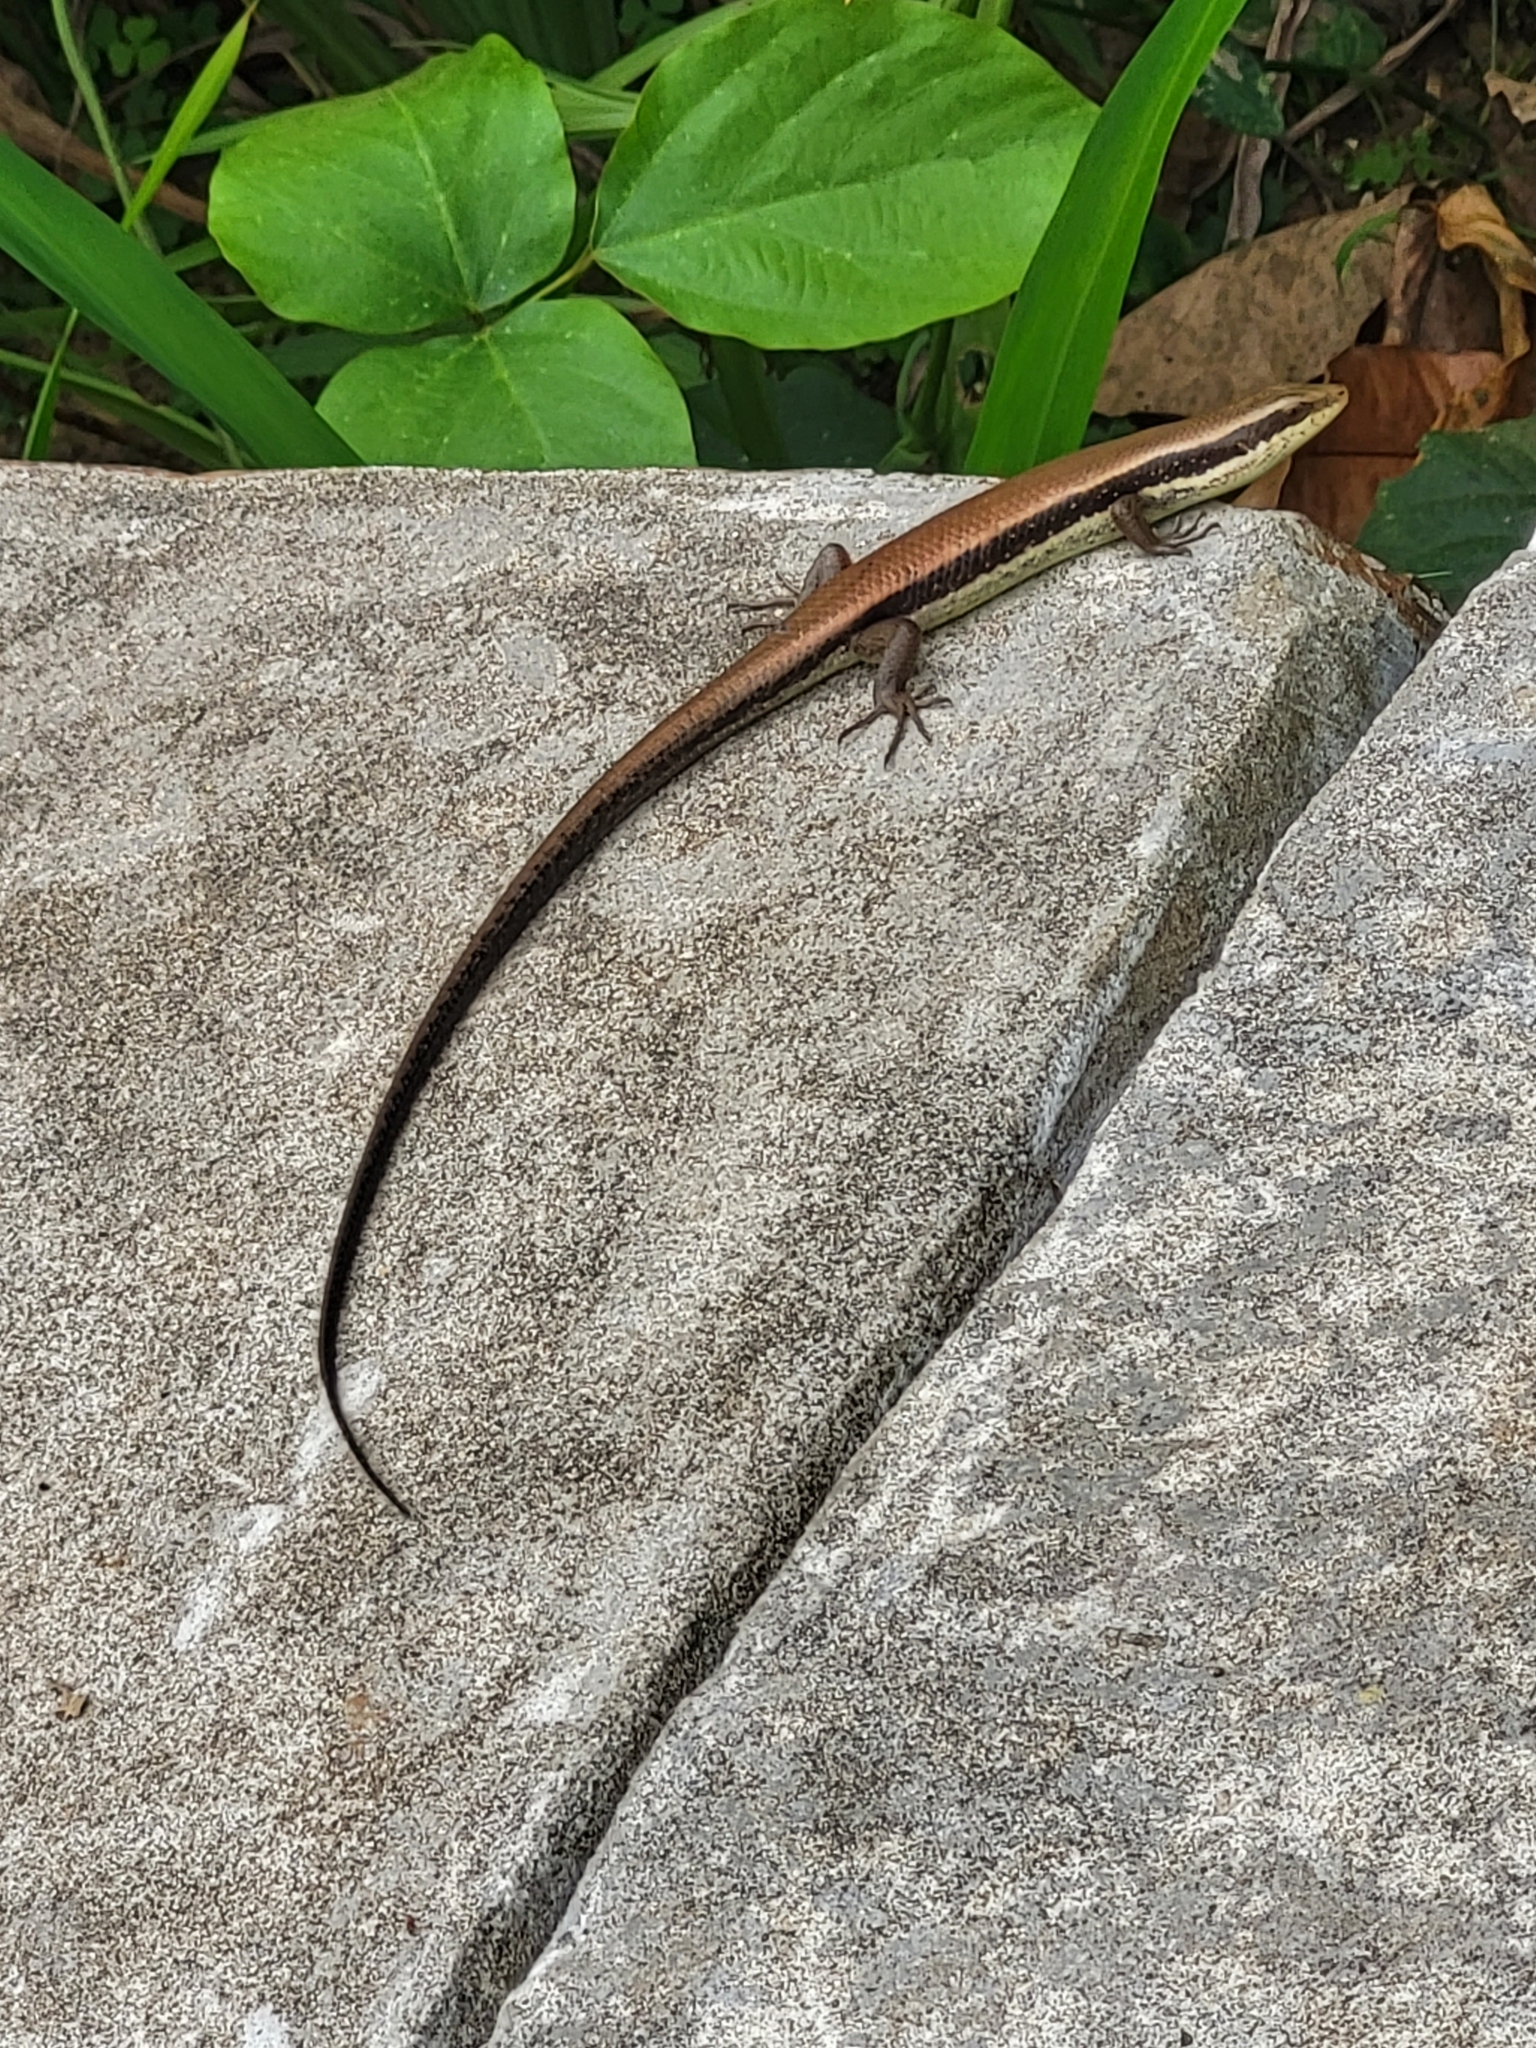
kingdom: Animalia
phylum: Chordata
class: Squamata
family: Scincidae
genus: Eutropis
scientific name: Eutropis longicaudata
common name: Long-tailed sun skink
